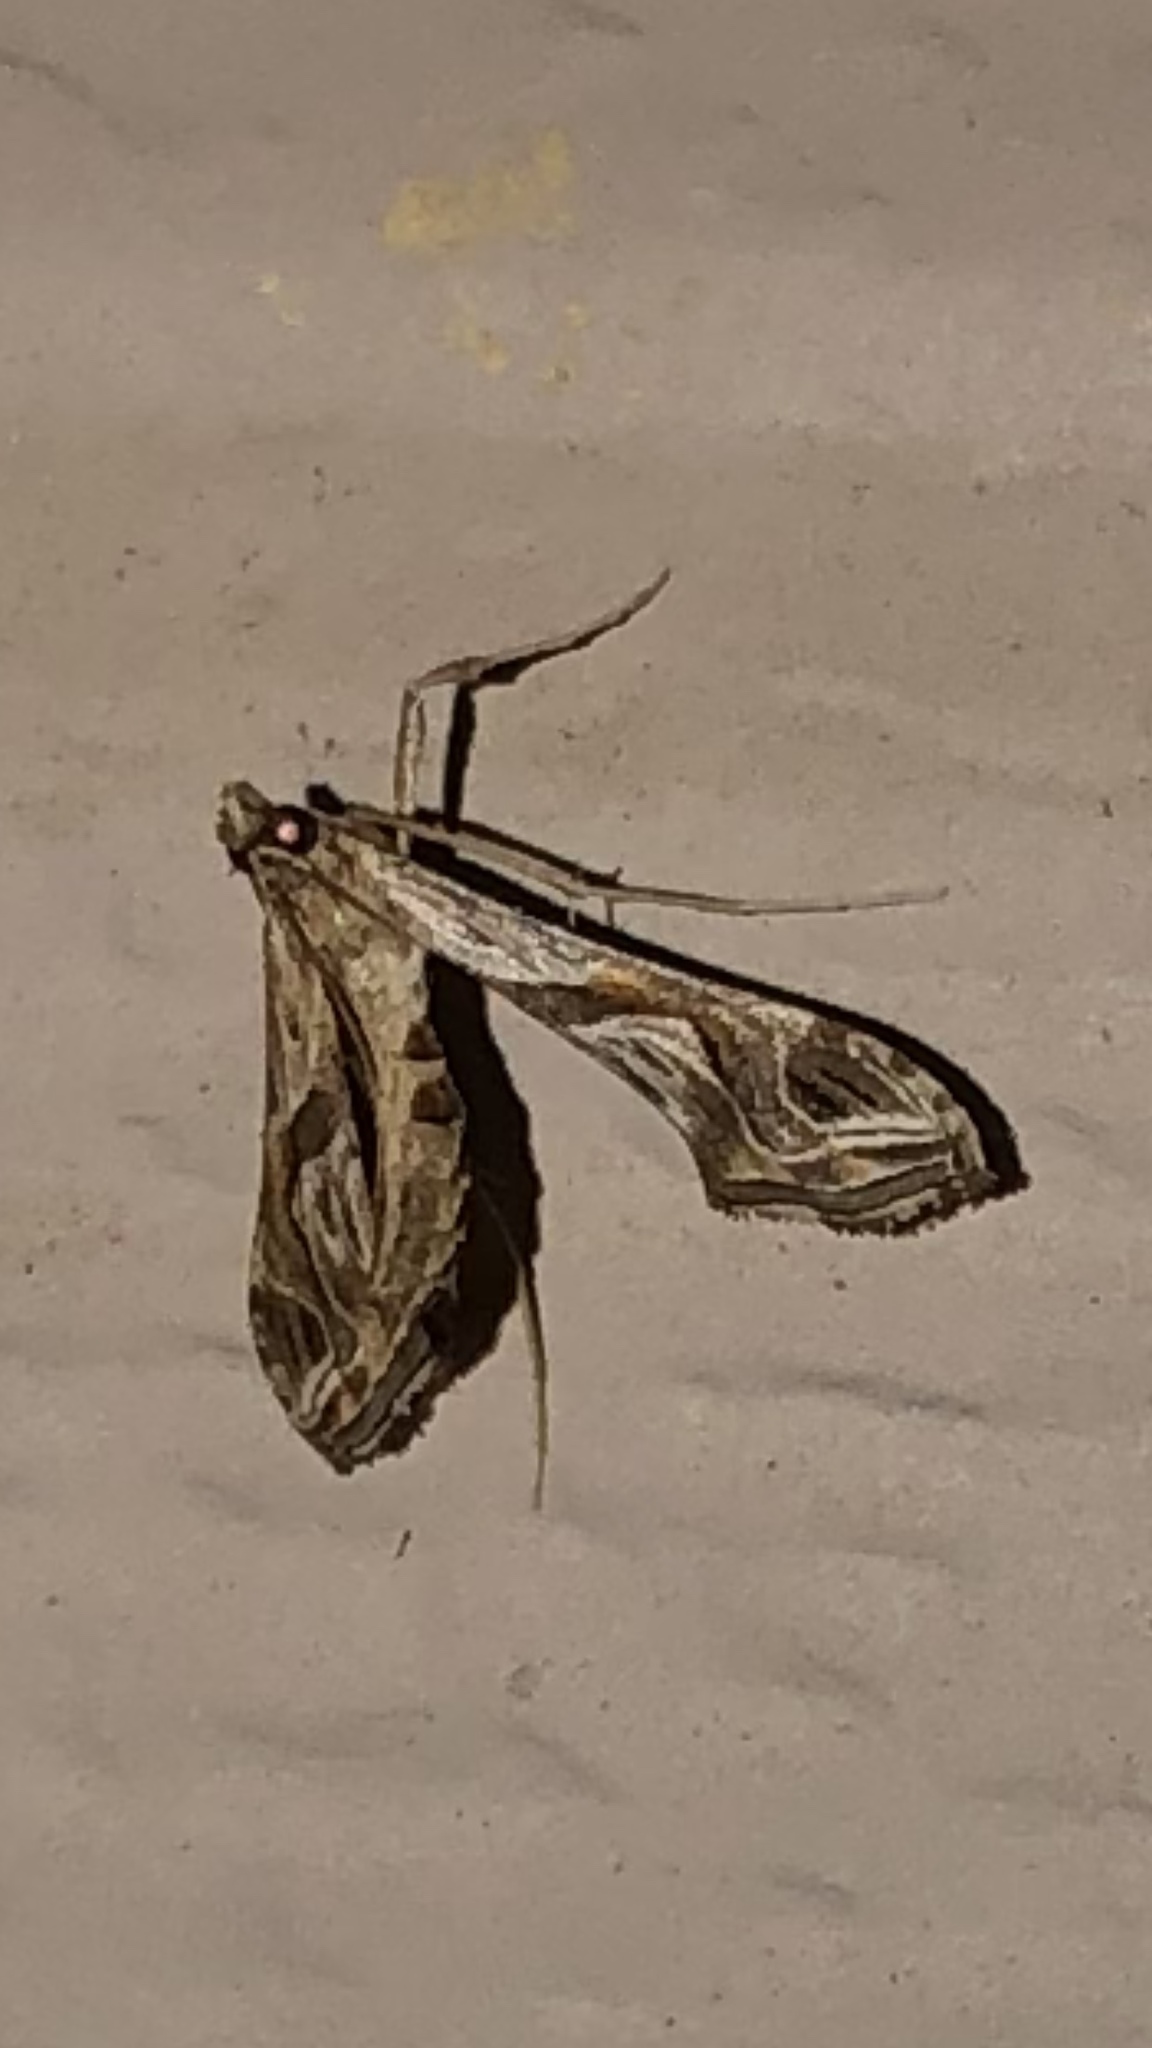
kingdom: Animalia
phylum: Arthropoda
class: Insecta
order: Lepidoptera
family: Crambidae
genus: Lineodes
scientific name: Lineodes integra
